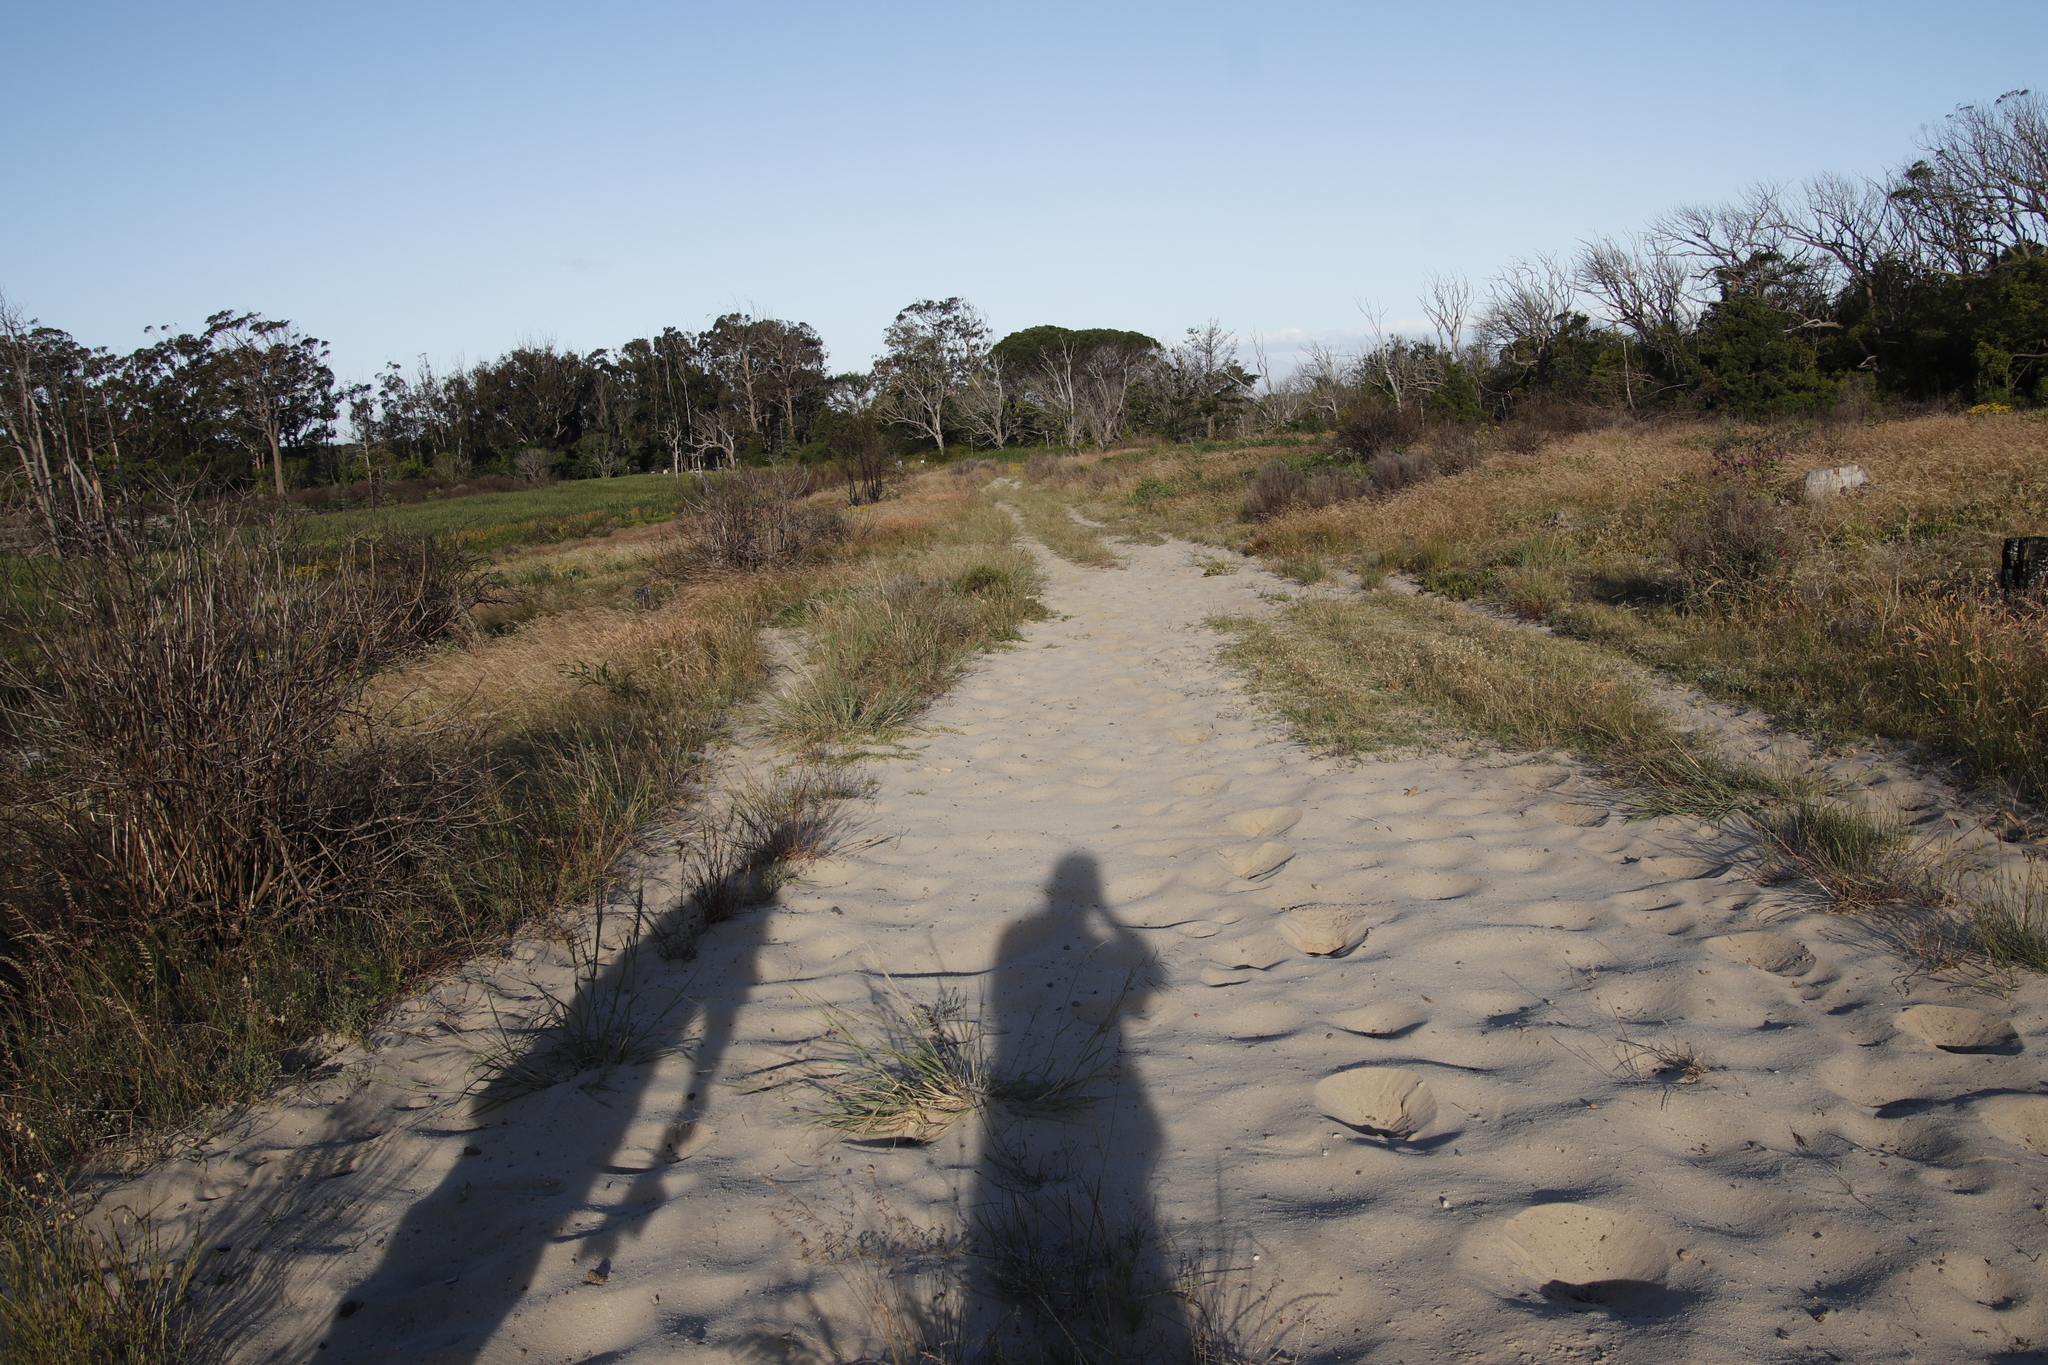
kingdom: Animalia
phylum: Chordata
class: Mammalia
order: Perissodactyla
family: Equidae
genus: Equus
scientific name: Equus caballus
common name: Horse
